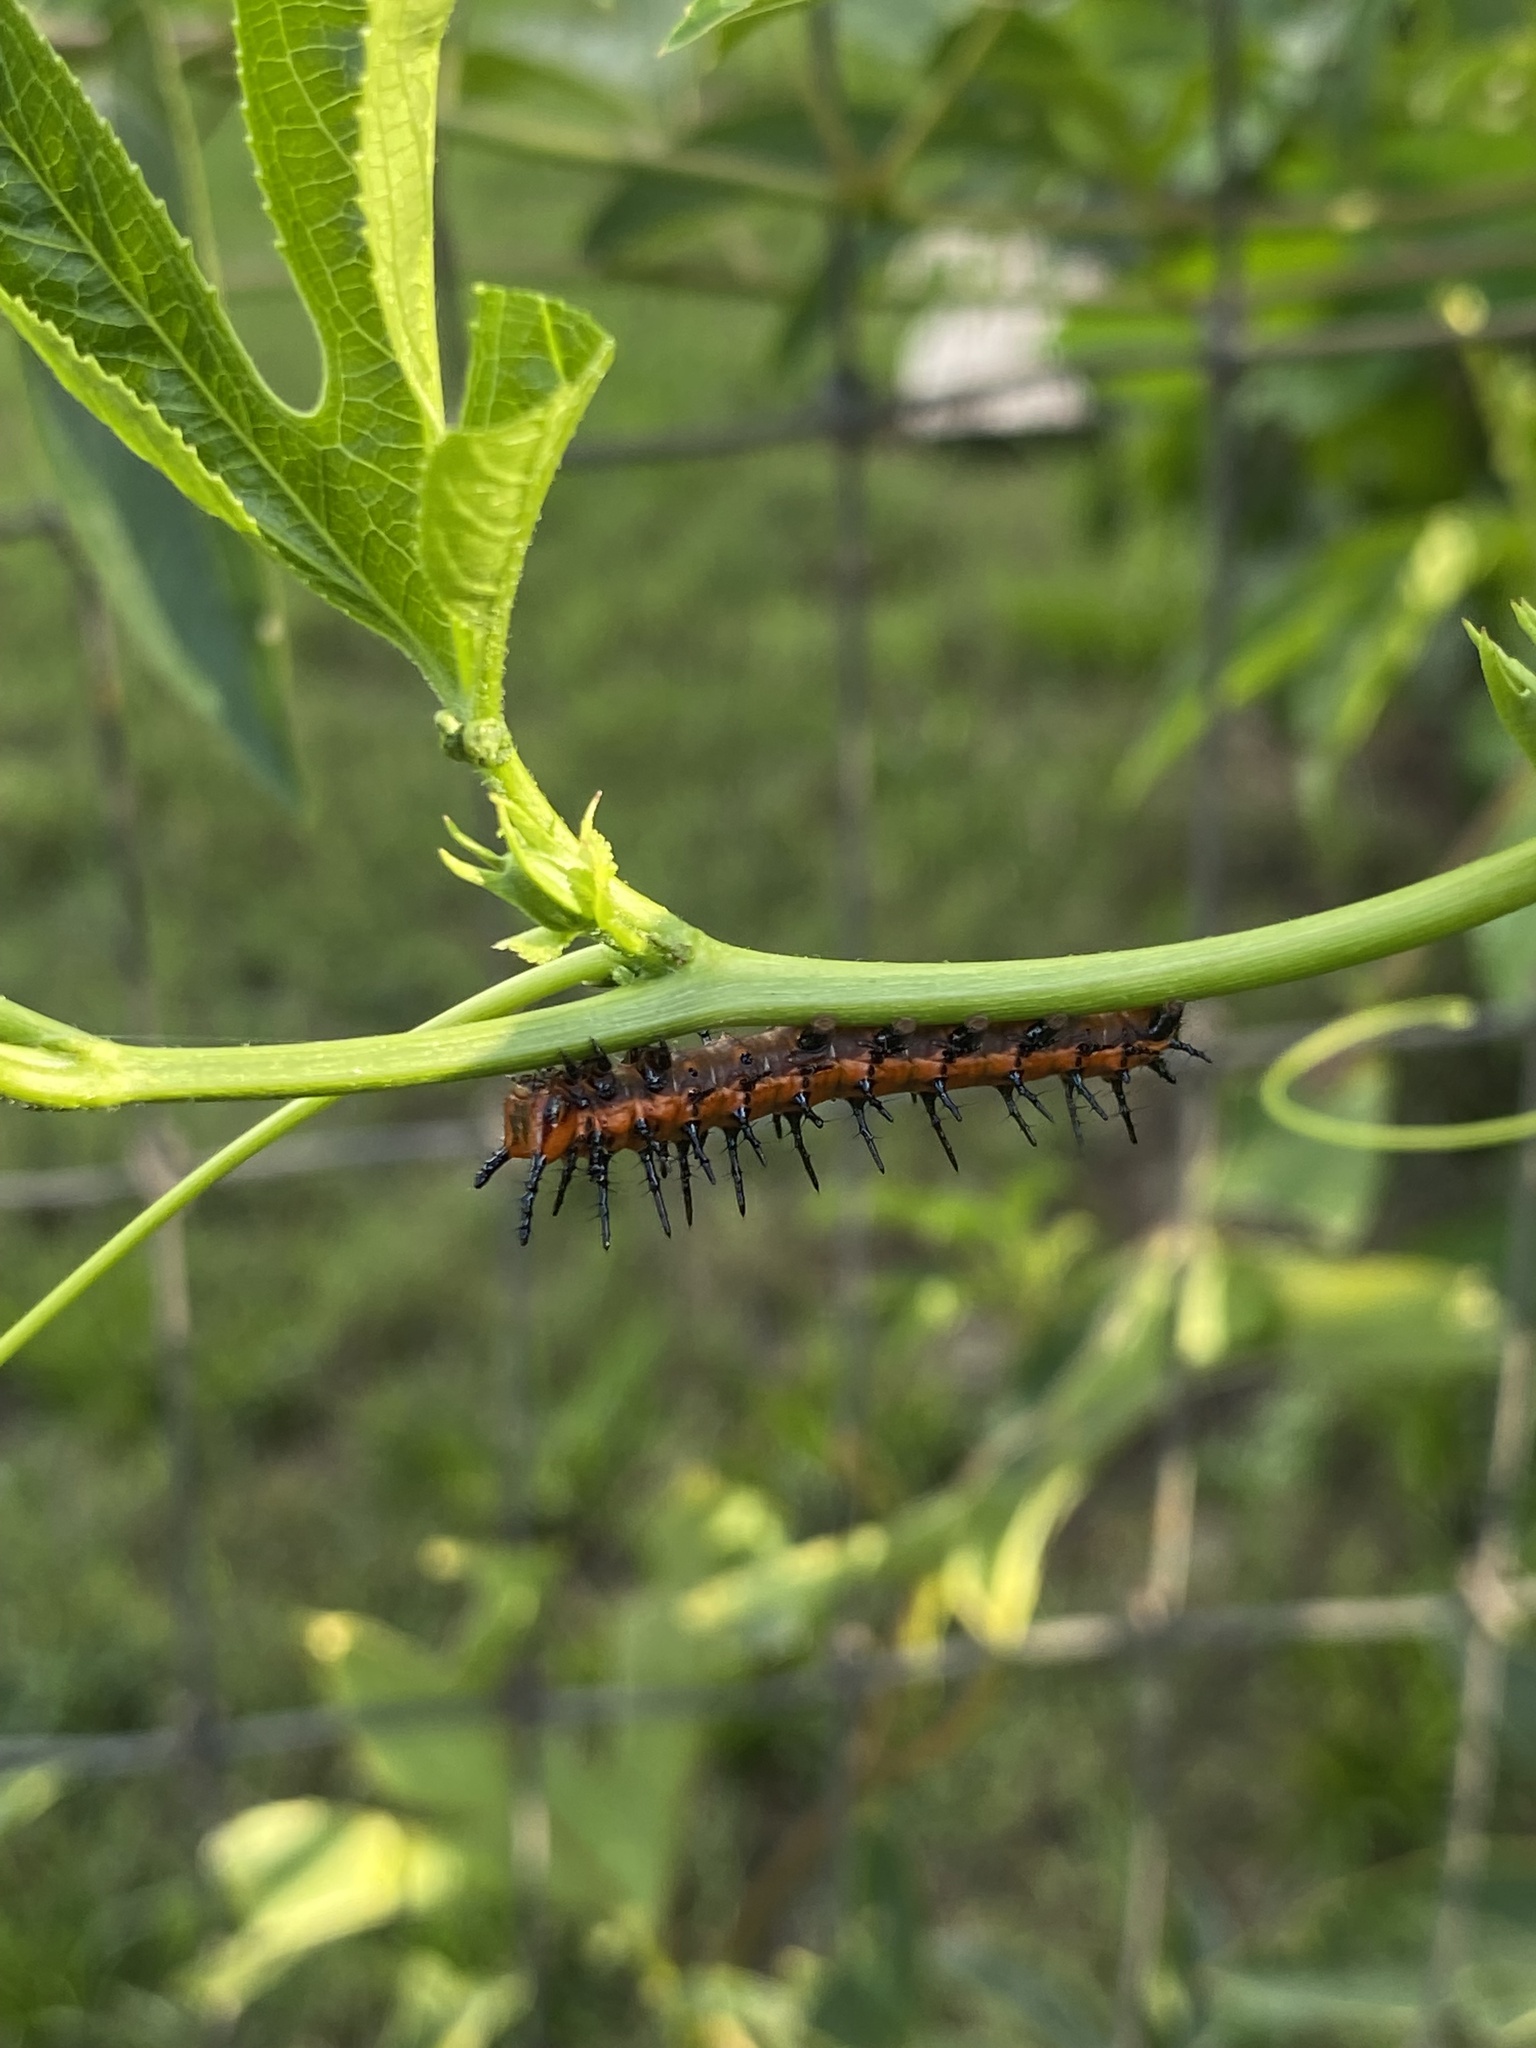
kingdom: Animalia
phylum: Arthropoda
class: Insecta
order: Lepidoptera
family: Nymphalidae
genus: Dione
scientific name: Dione vanillae
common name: Gulf fritillary
